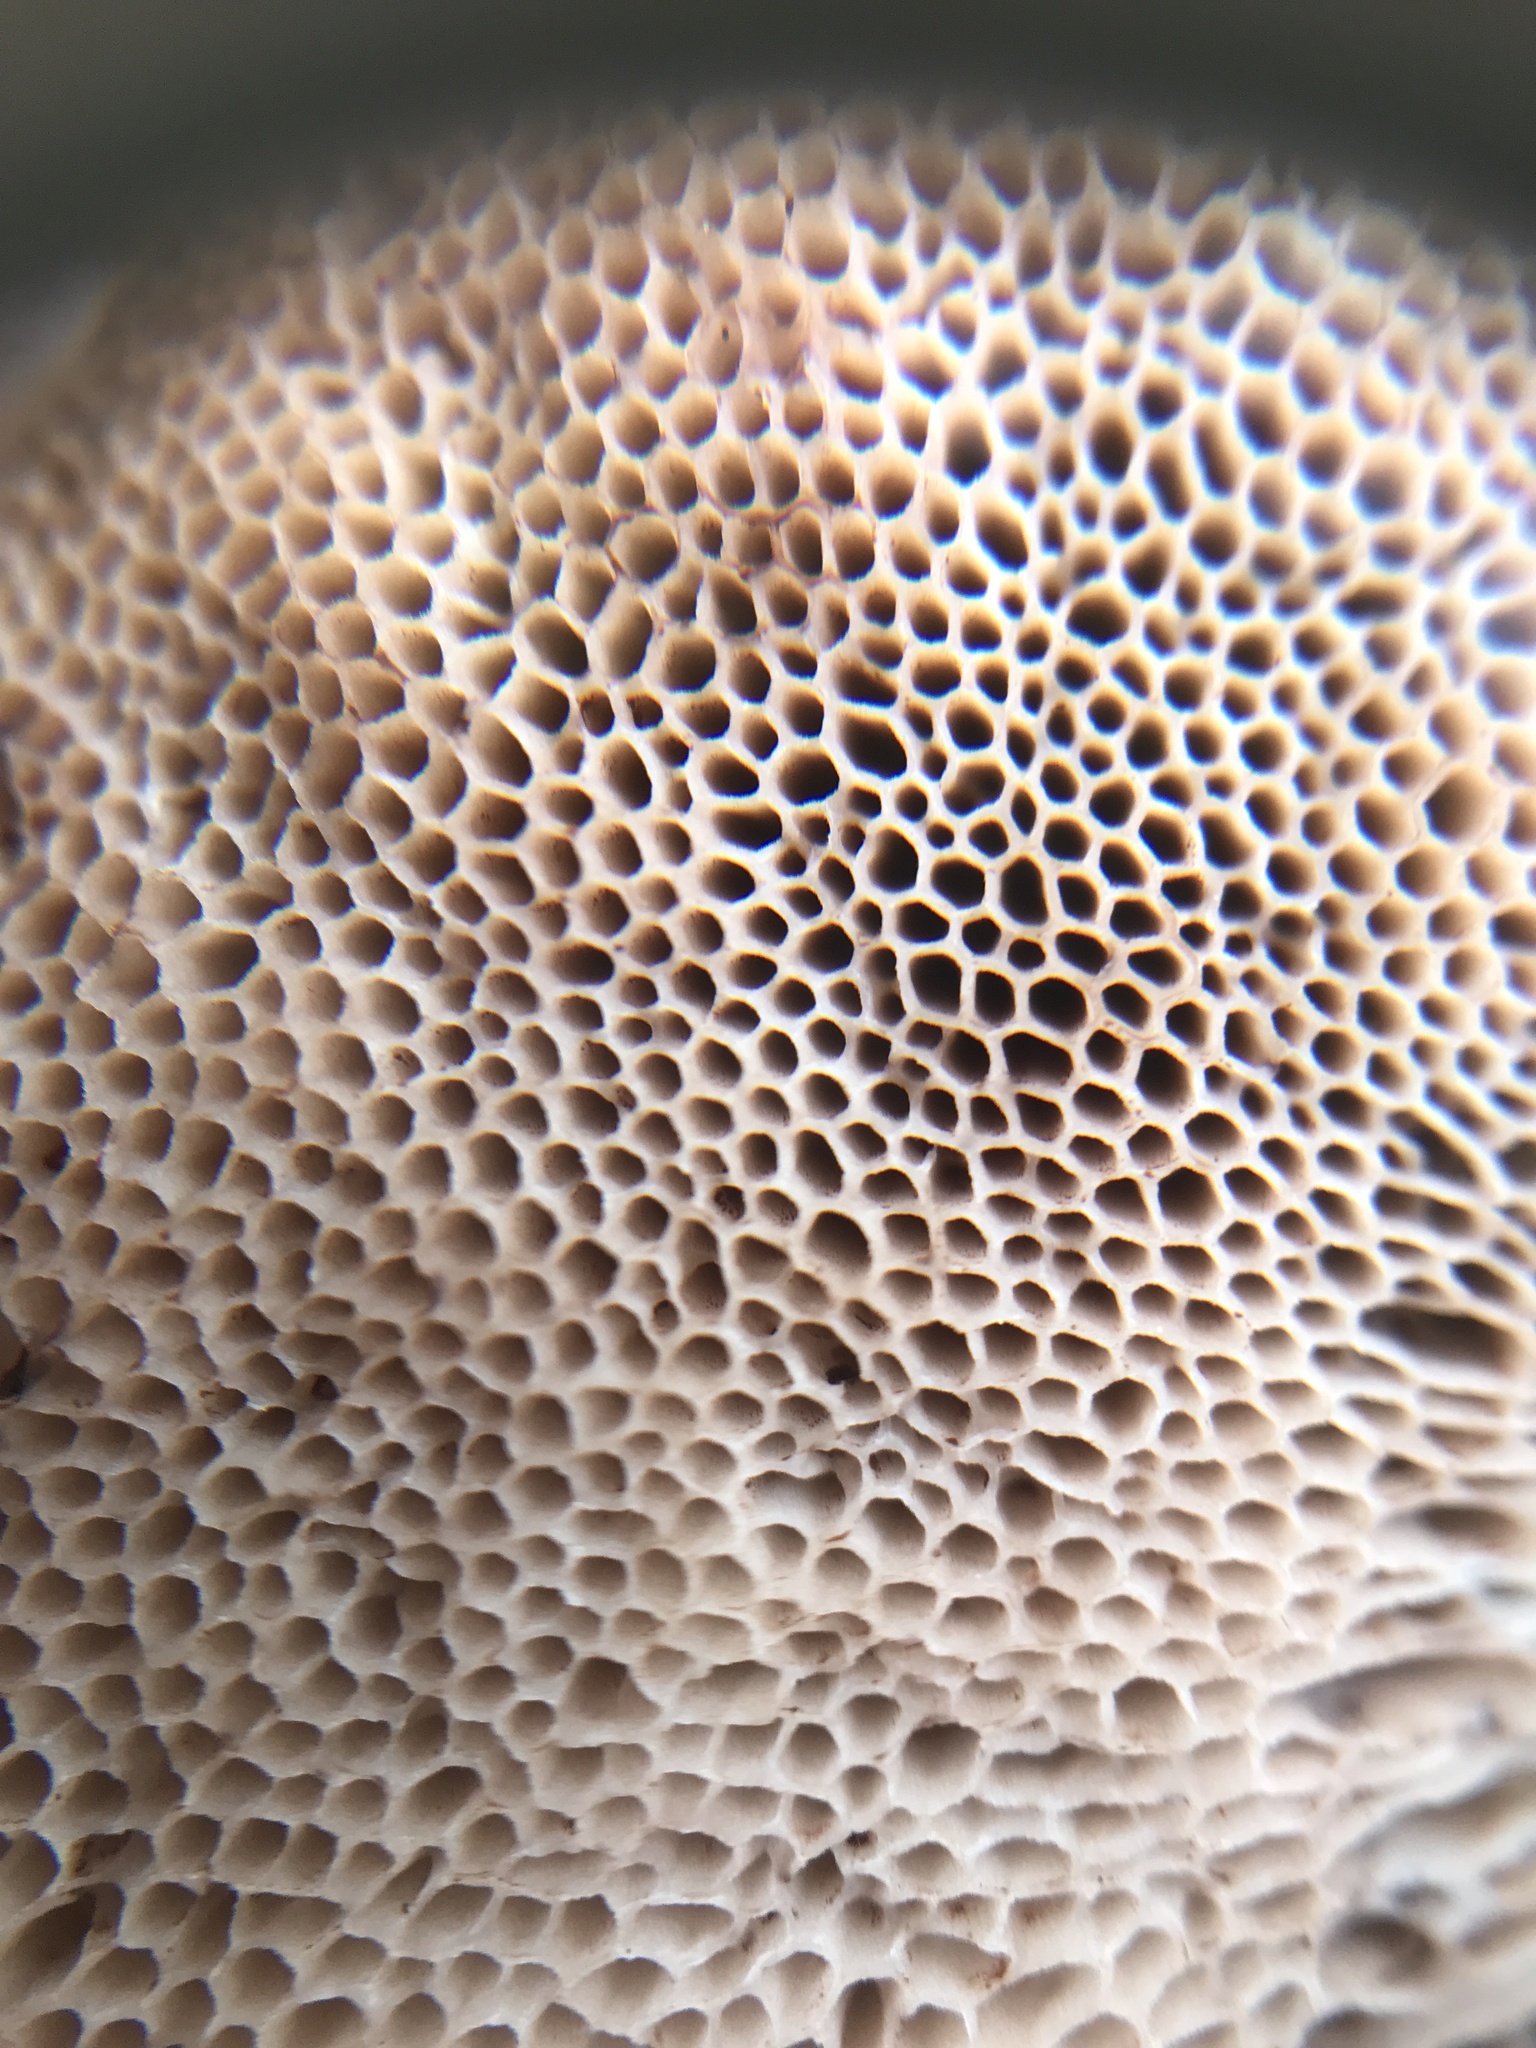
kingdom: Fungi
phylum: Basidiomycota
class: Agaricomycetes
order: Boletales
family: Boletaceae
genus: Veloporphyrellus
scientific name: Veloporphyrellus conicus
